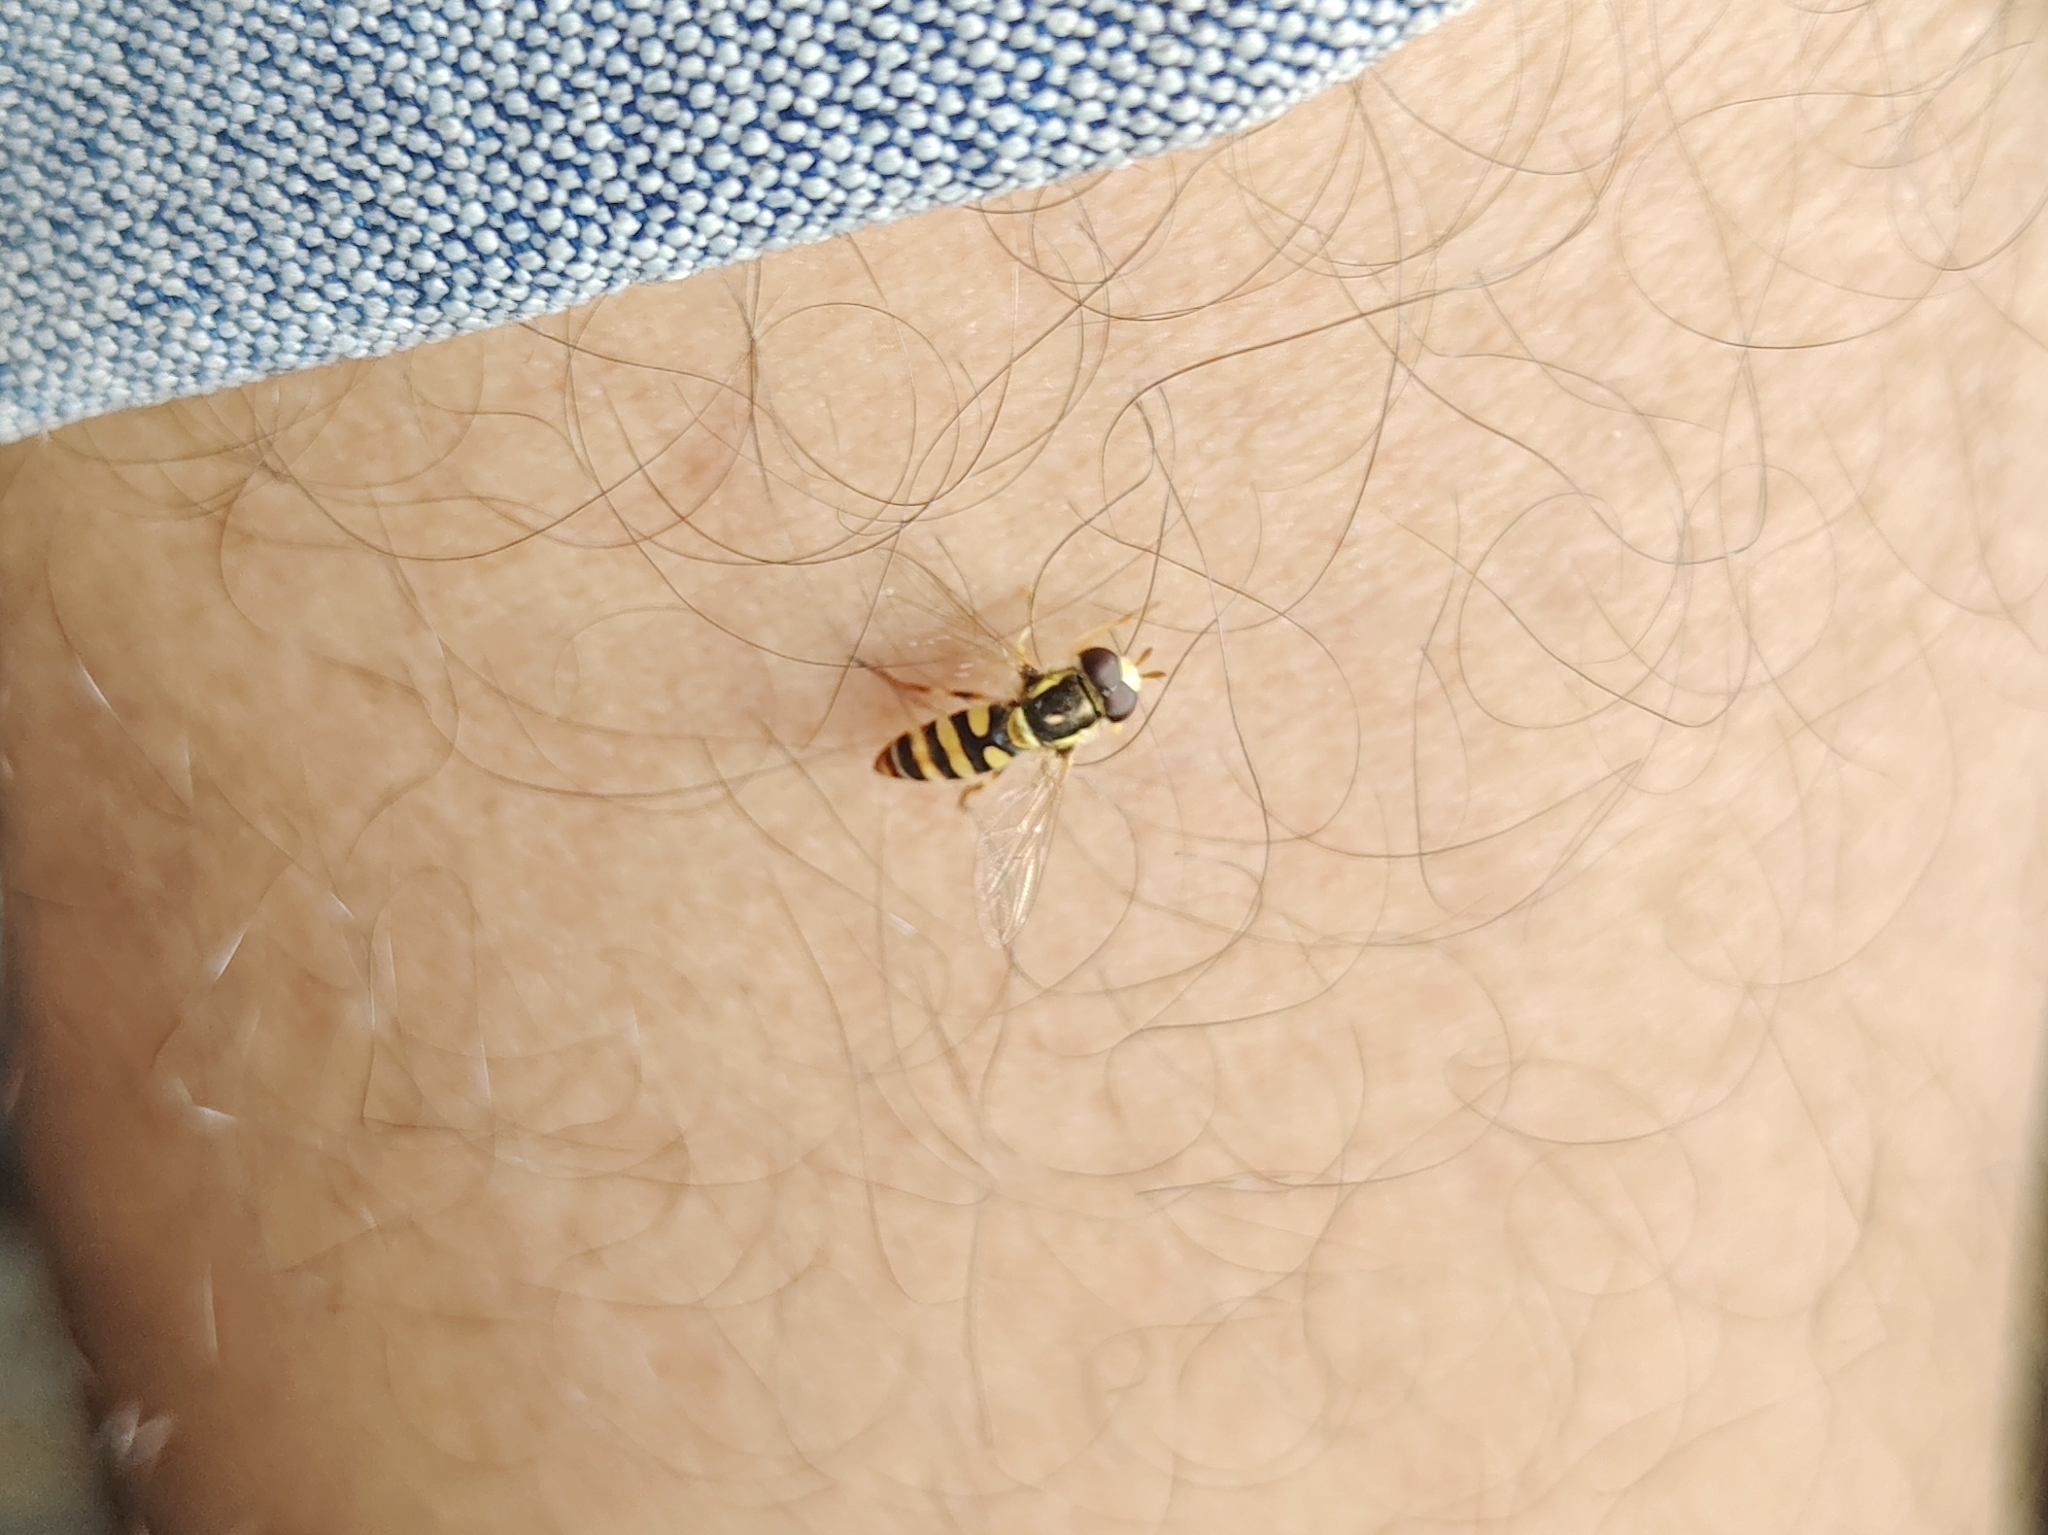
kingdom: Animalia
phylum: Arthropoda
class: Insecta
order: Diptera
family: Syrphidae
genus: Ischiodon
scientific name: Ischiodon scutellaris
